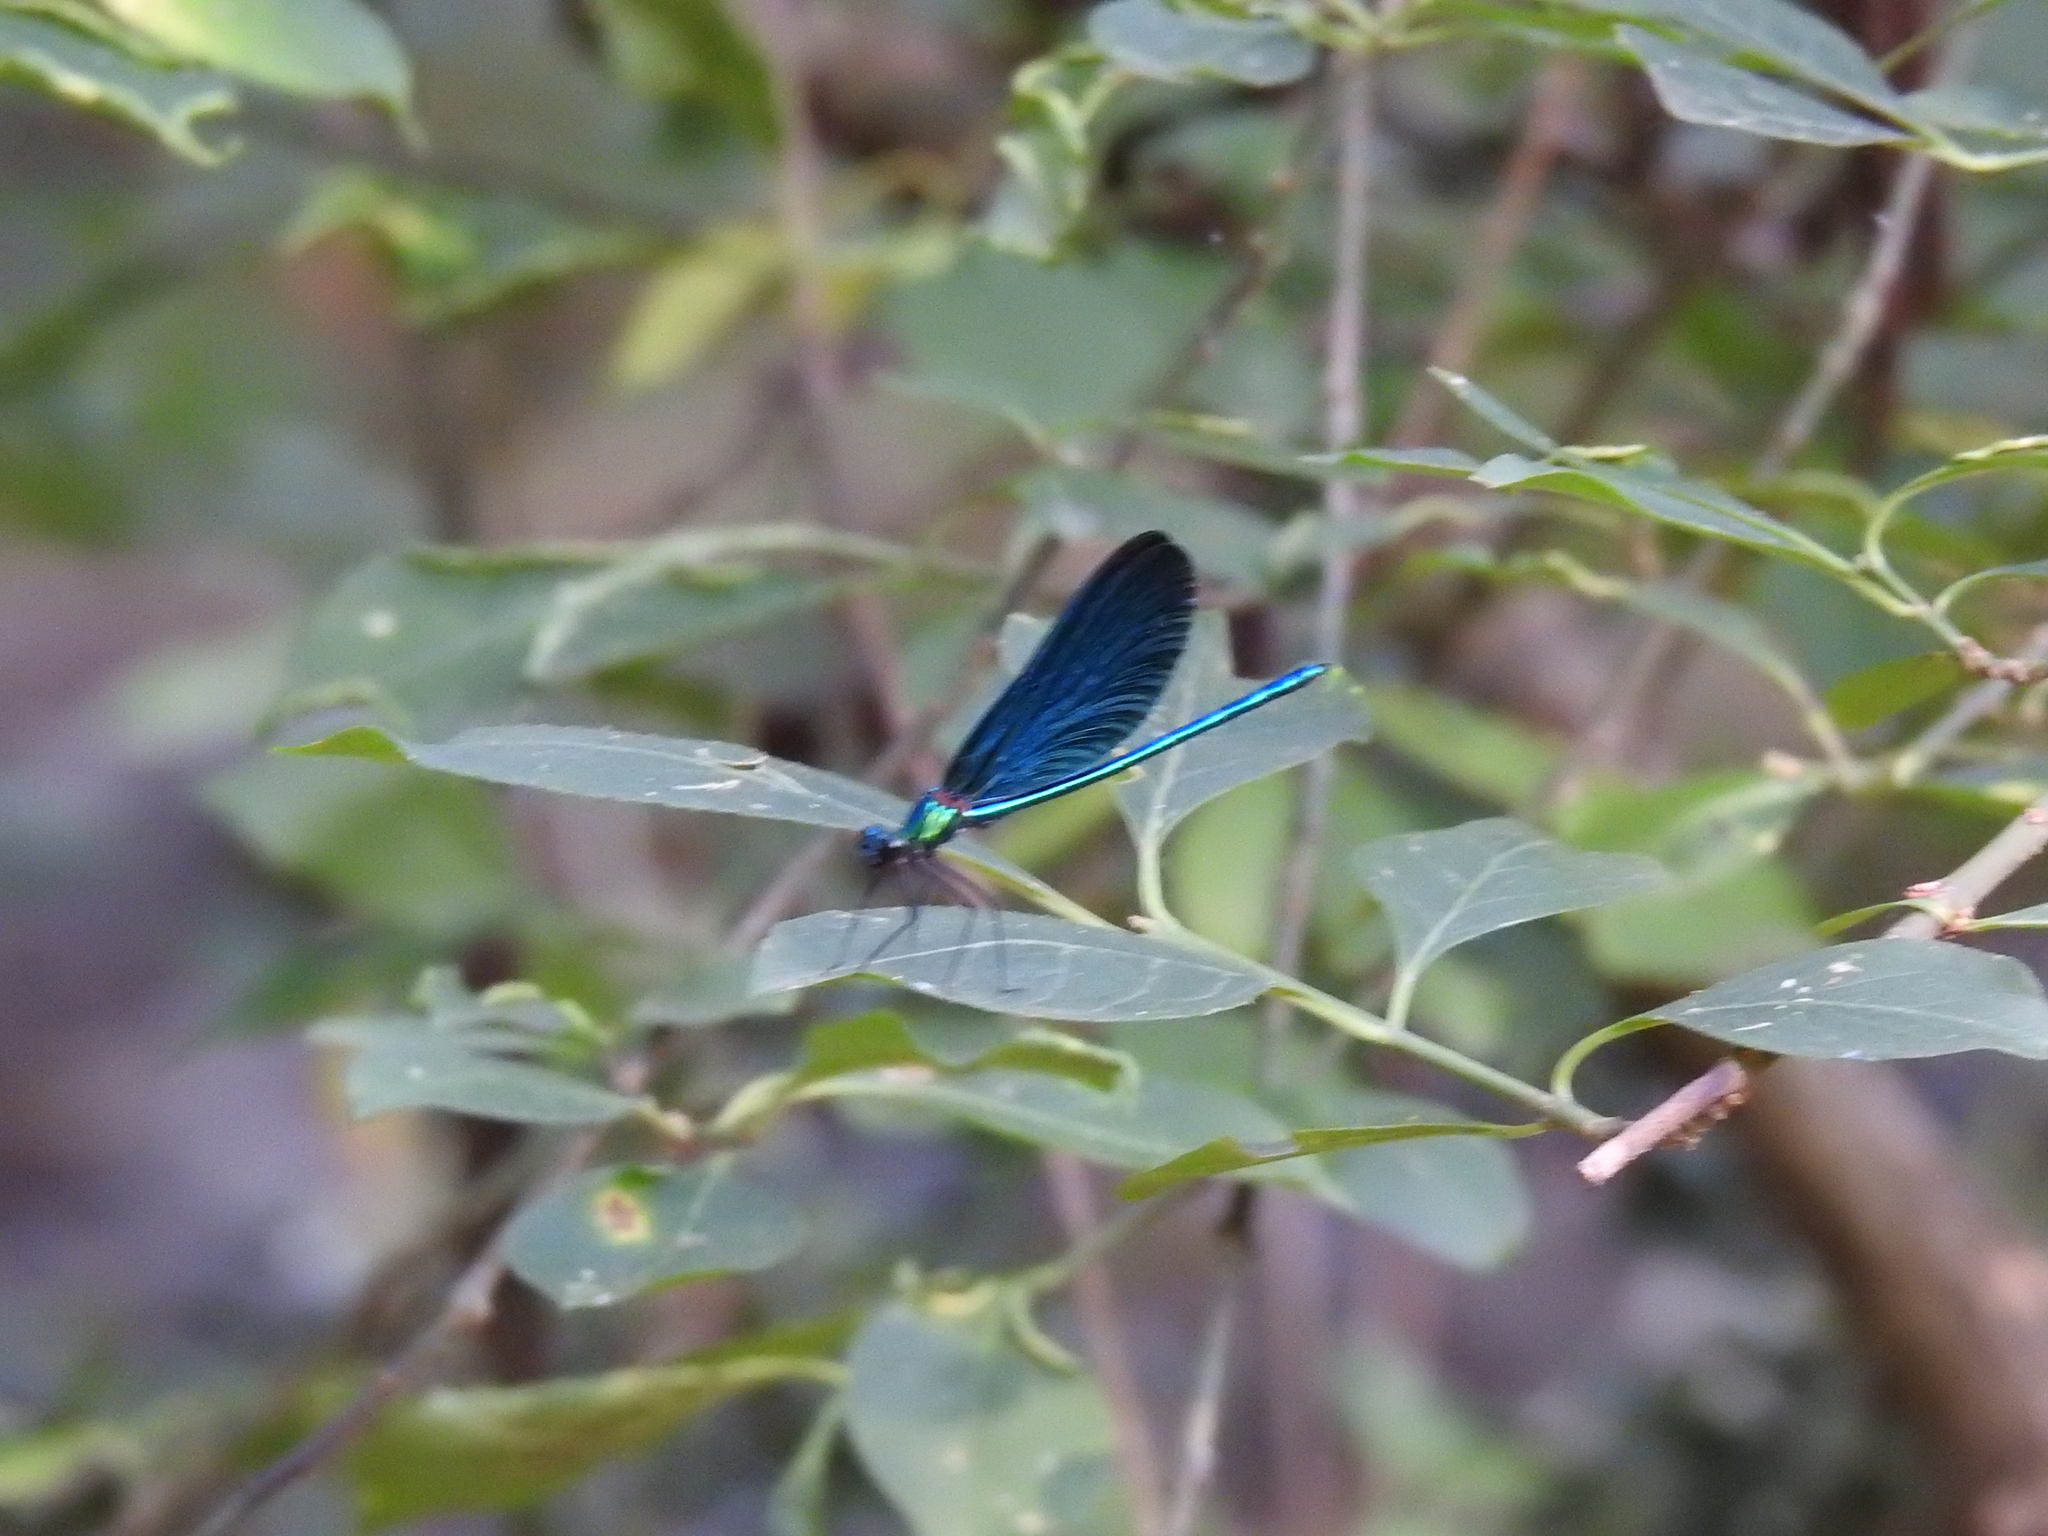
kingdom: Animalia
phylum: Arthropoda
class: Insecta
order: Odonata
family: Calopterygidae
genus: Calopteryx
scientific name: Calopteryx virgo
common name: Beautiful demoiselle
